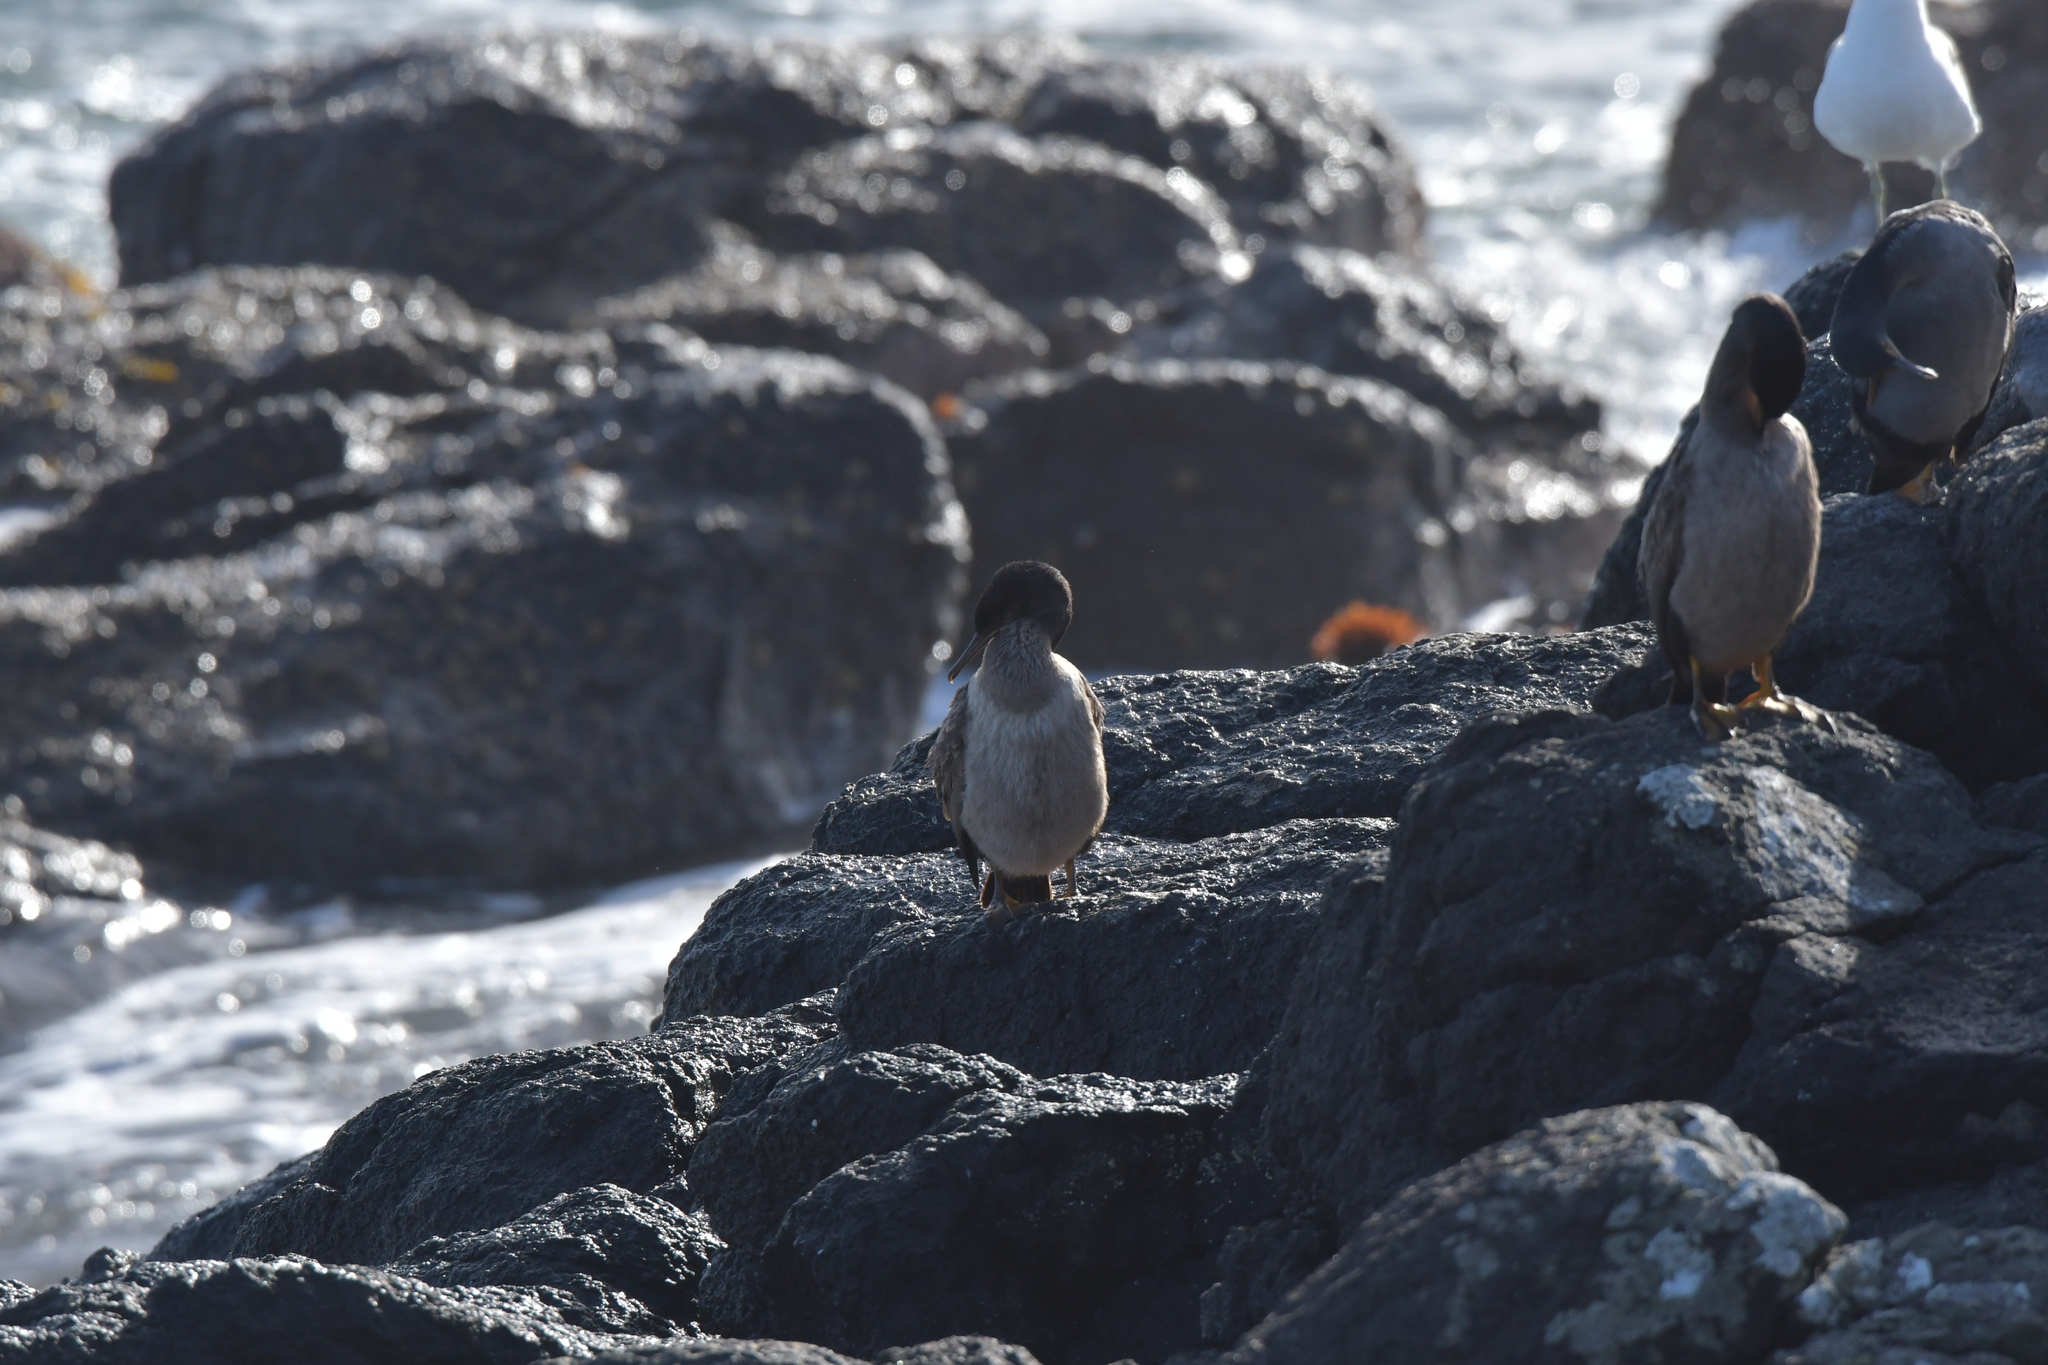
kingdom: Animalia
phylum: Chordata
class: Aves
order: Suliformes
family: Phalacrocoracidae
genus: Phalacrocorax
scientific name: Phalacrocorax featherstoni
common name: Pitt shag
